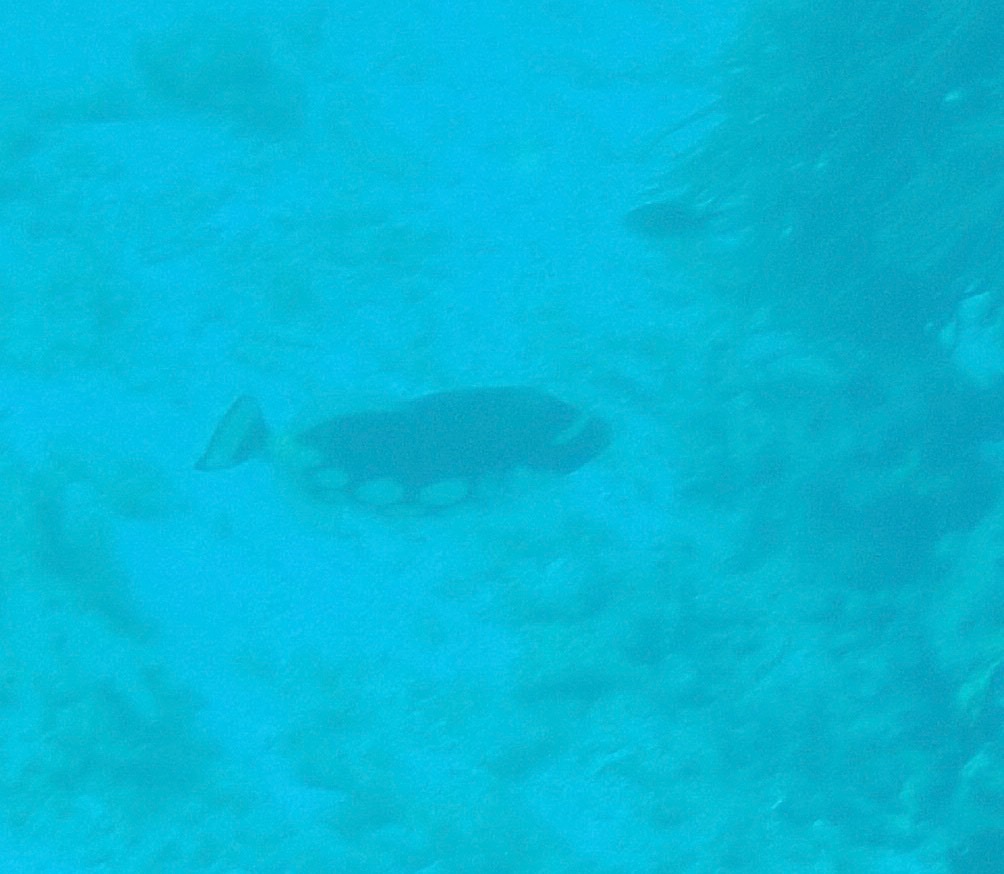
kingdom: Animalia
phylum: Chordata
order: Tetraodontiformes
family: Balistidae
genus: Balistoides
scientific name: Balistoides conspicillum
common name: Clown triggerfish
